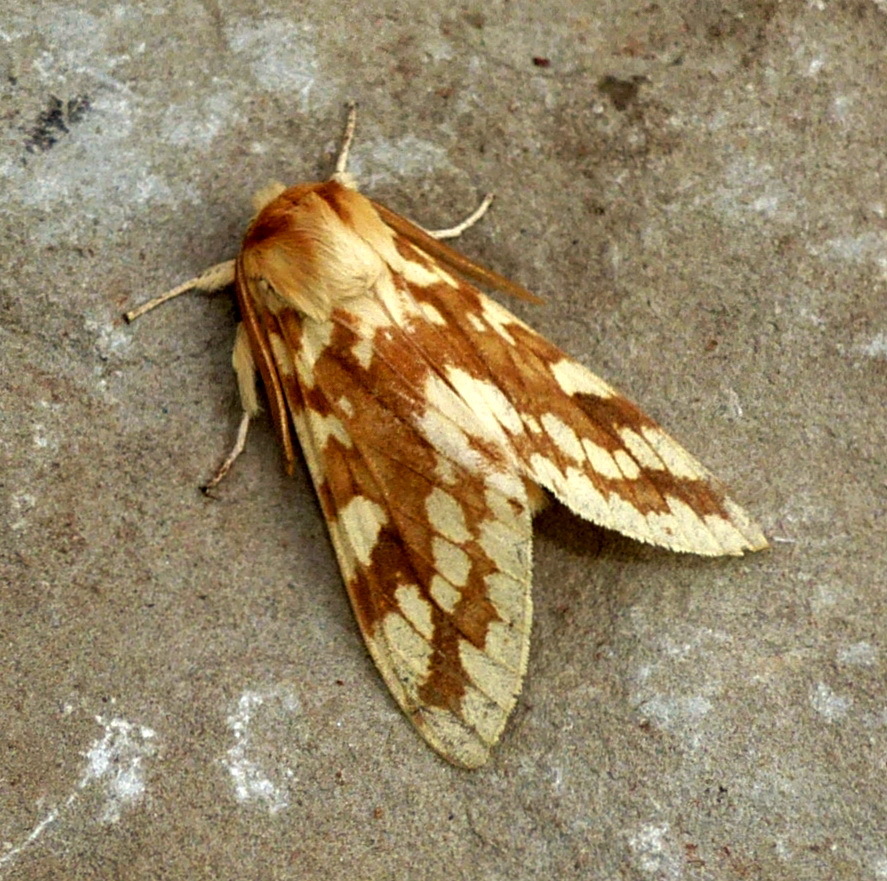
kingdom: Animalia
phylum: Arthropoda
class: Insecta
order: Lepidoptera
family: Erebidae
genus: Lophocampa
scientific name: Lophocampa maculata
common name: Spotted tussock moth
